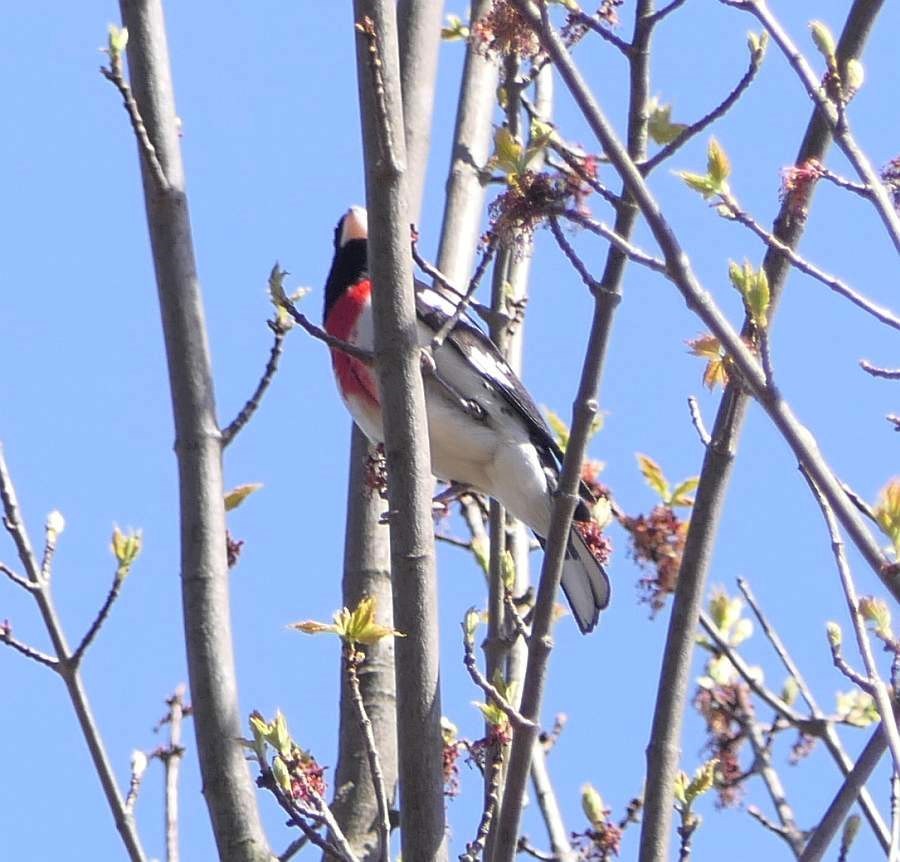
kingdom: Animalia
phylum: Chordata
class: Aves
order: Passeriformes
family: Cardinalidae
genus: Pheucticus
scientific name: Pheucticus ludovicianus
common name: Rose-breasted grosbeak
